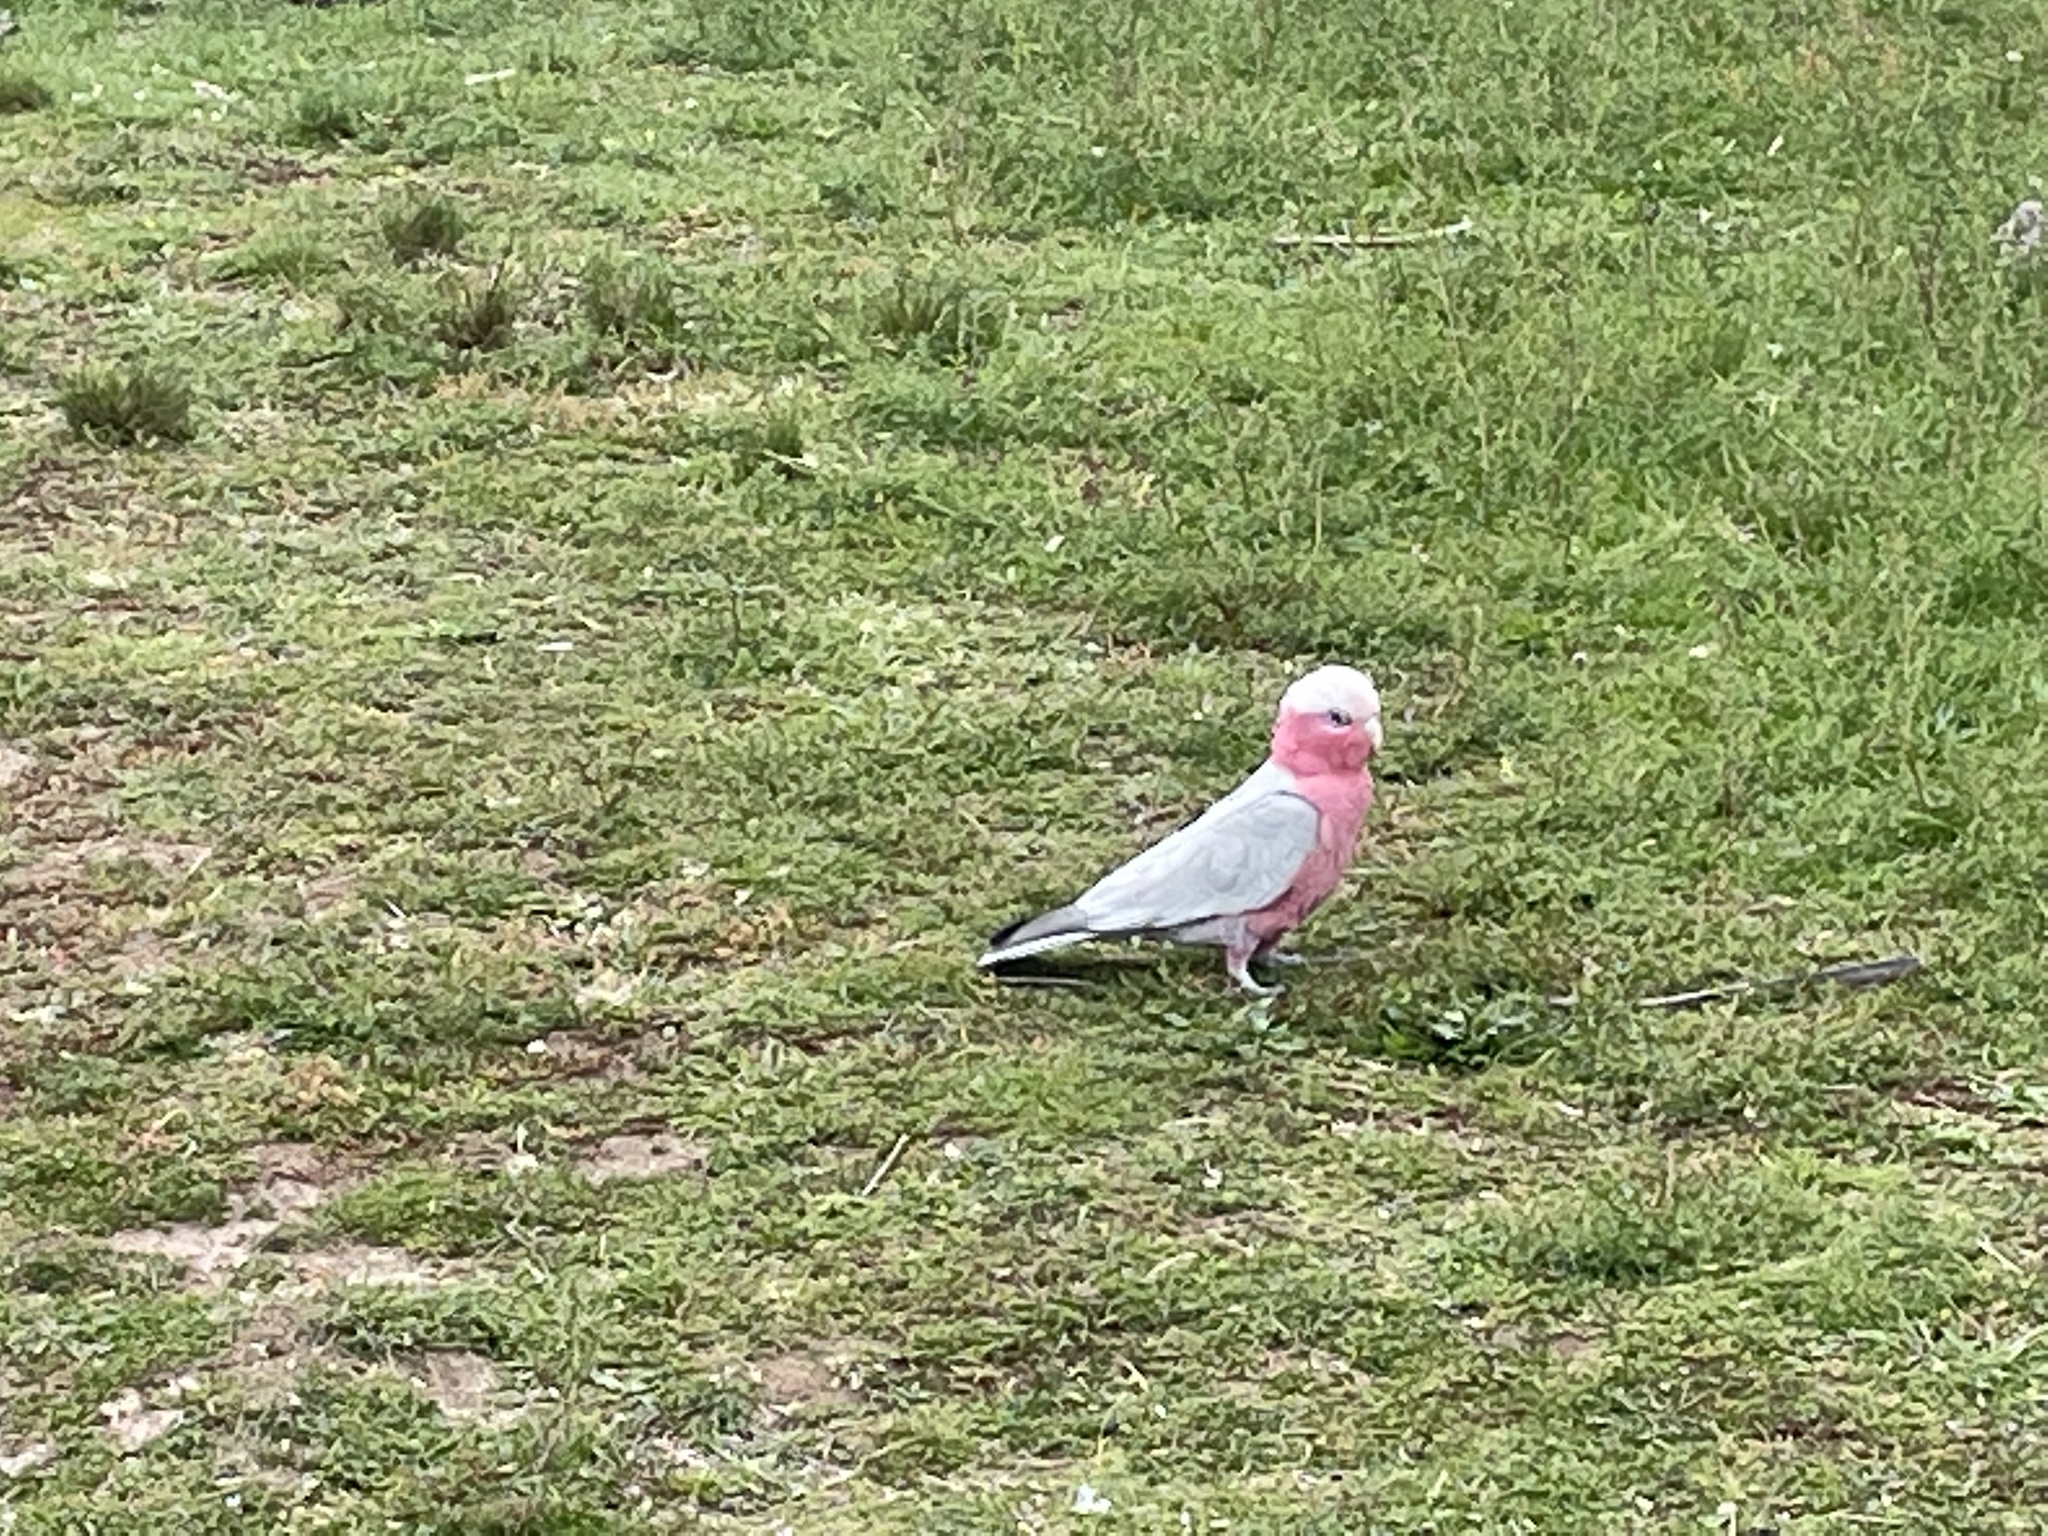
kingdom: Animalia
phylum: Chordata
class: Aves
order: Psittaciformes
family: Psittacidae
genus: Eolophus
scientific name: Eolophus roseicapilla
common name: Galah
